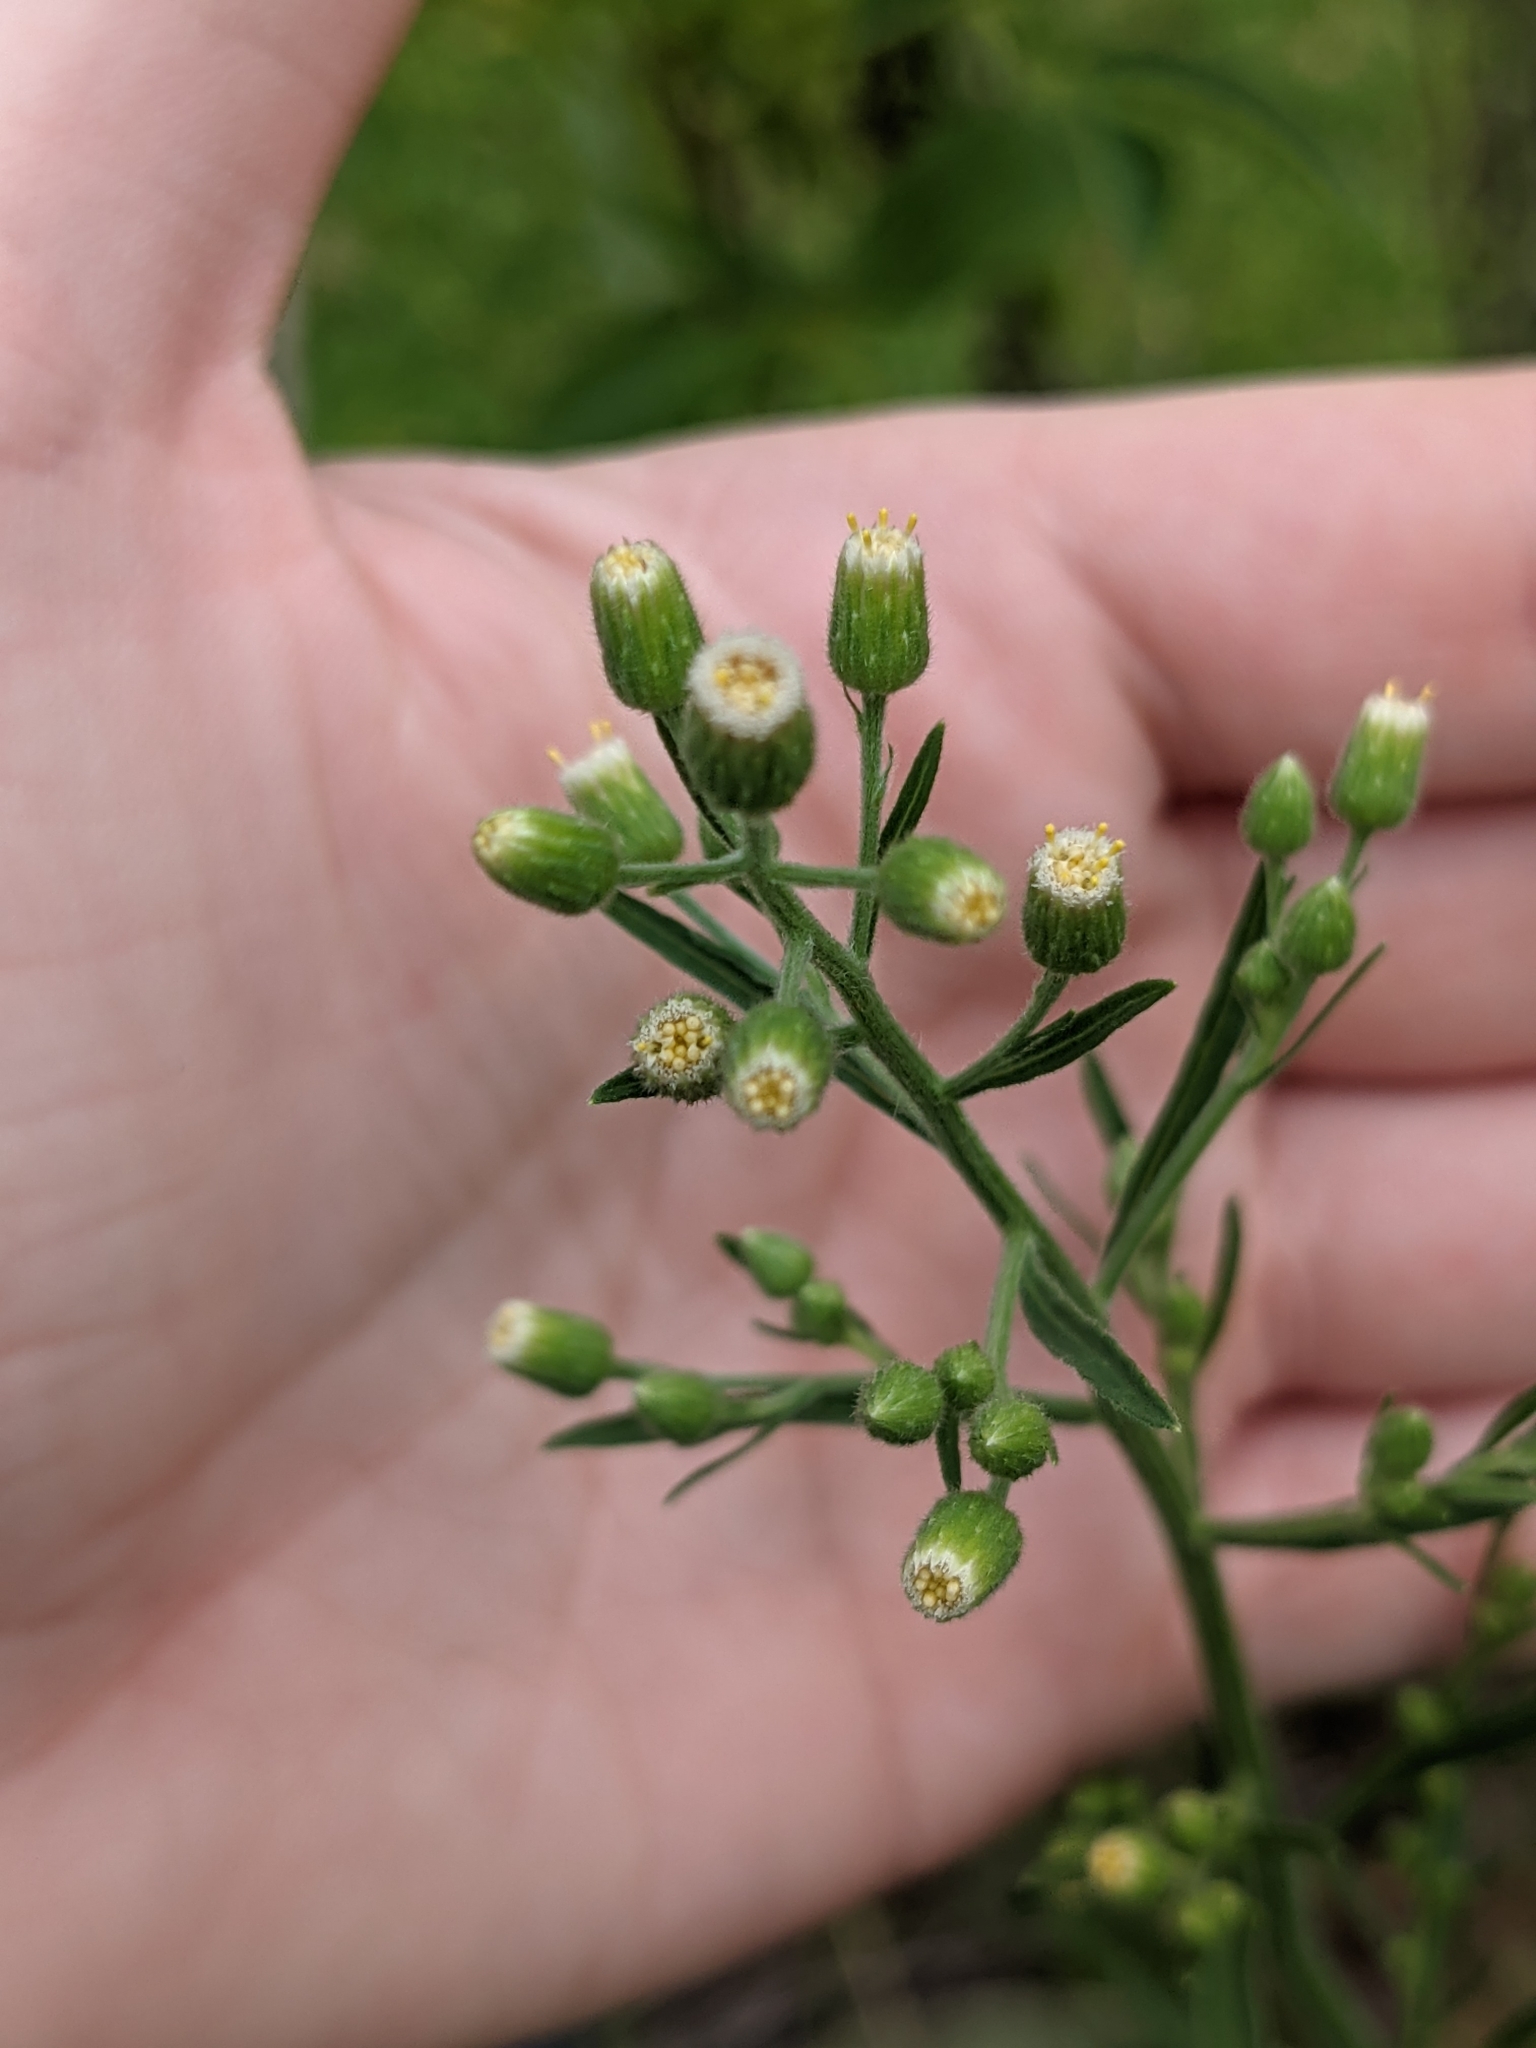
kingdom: Plantae
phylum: Tracheophyta
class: Magnoliopsida
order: Asterales
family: Asteraceae
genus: Erigeron
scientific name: Erigeron sumatrensis
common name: Daisy
